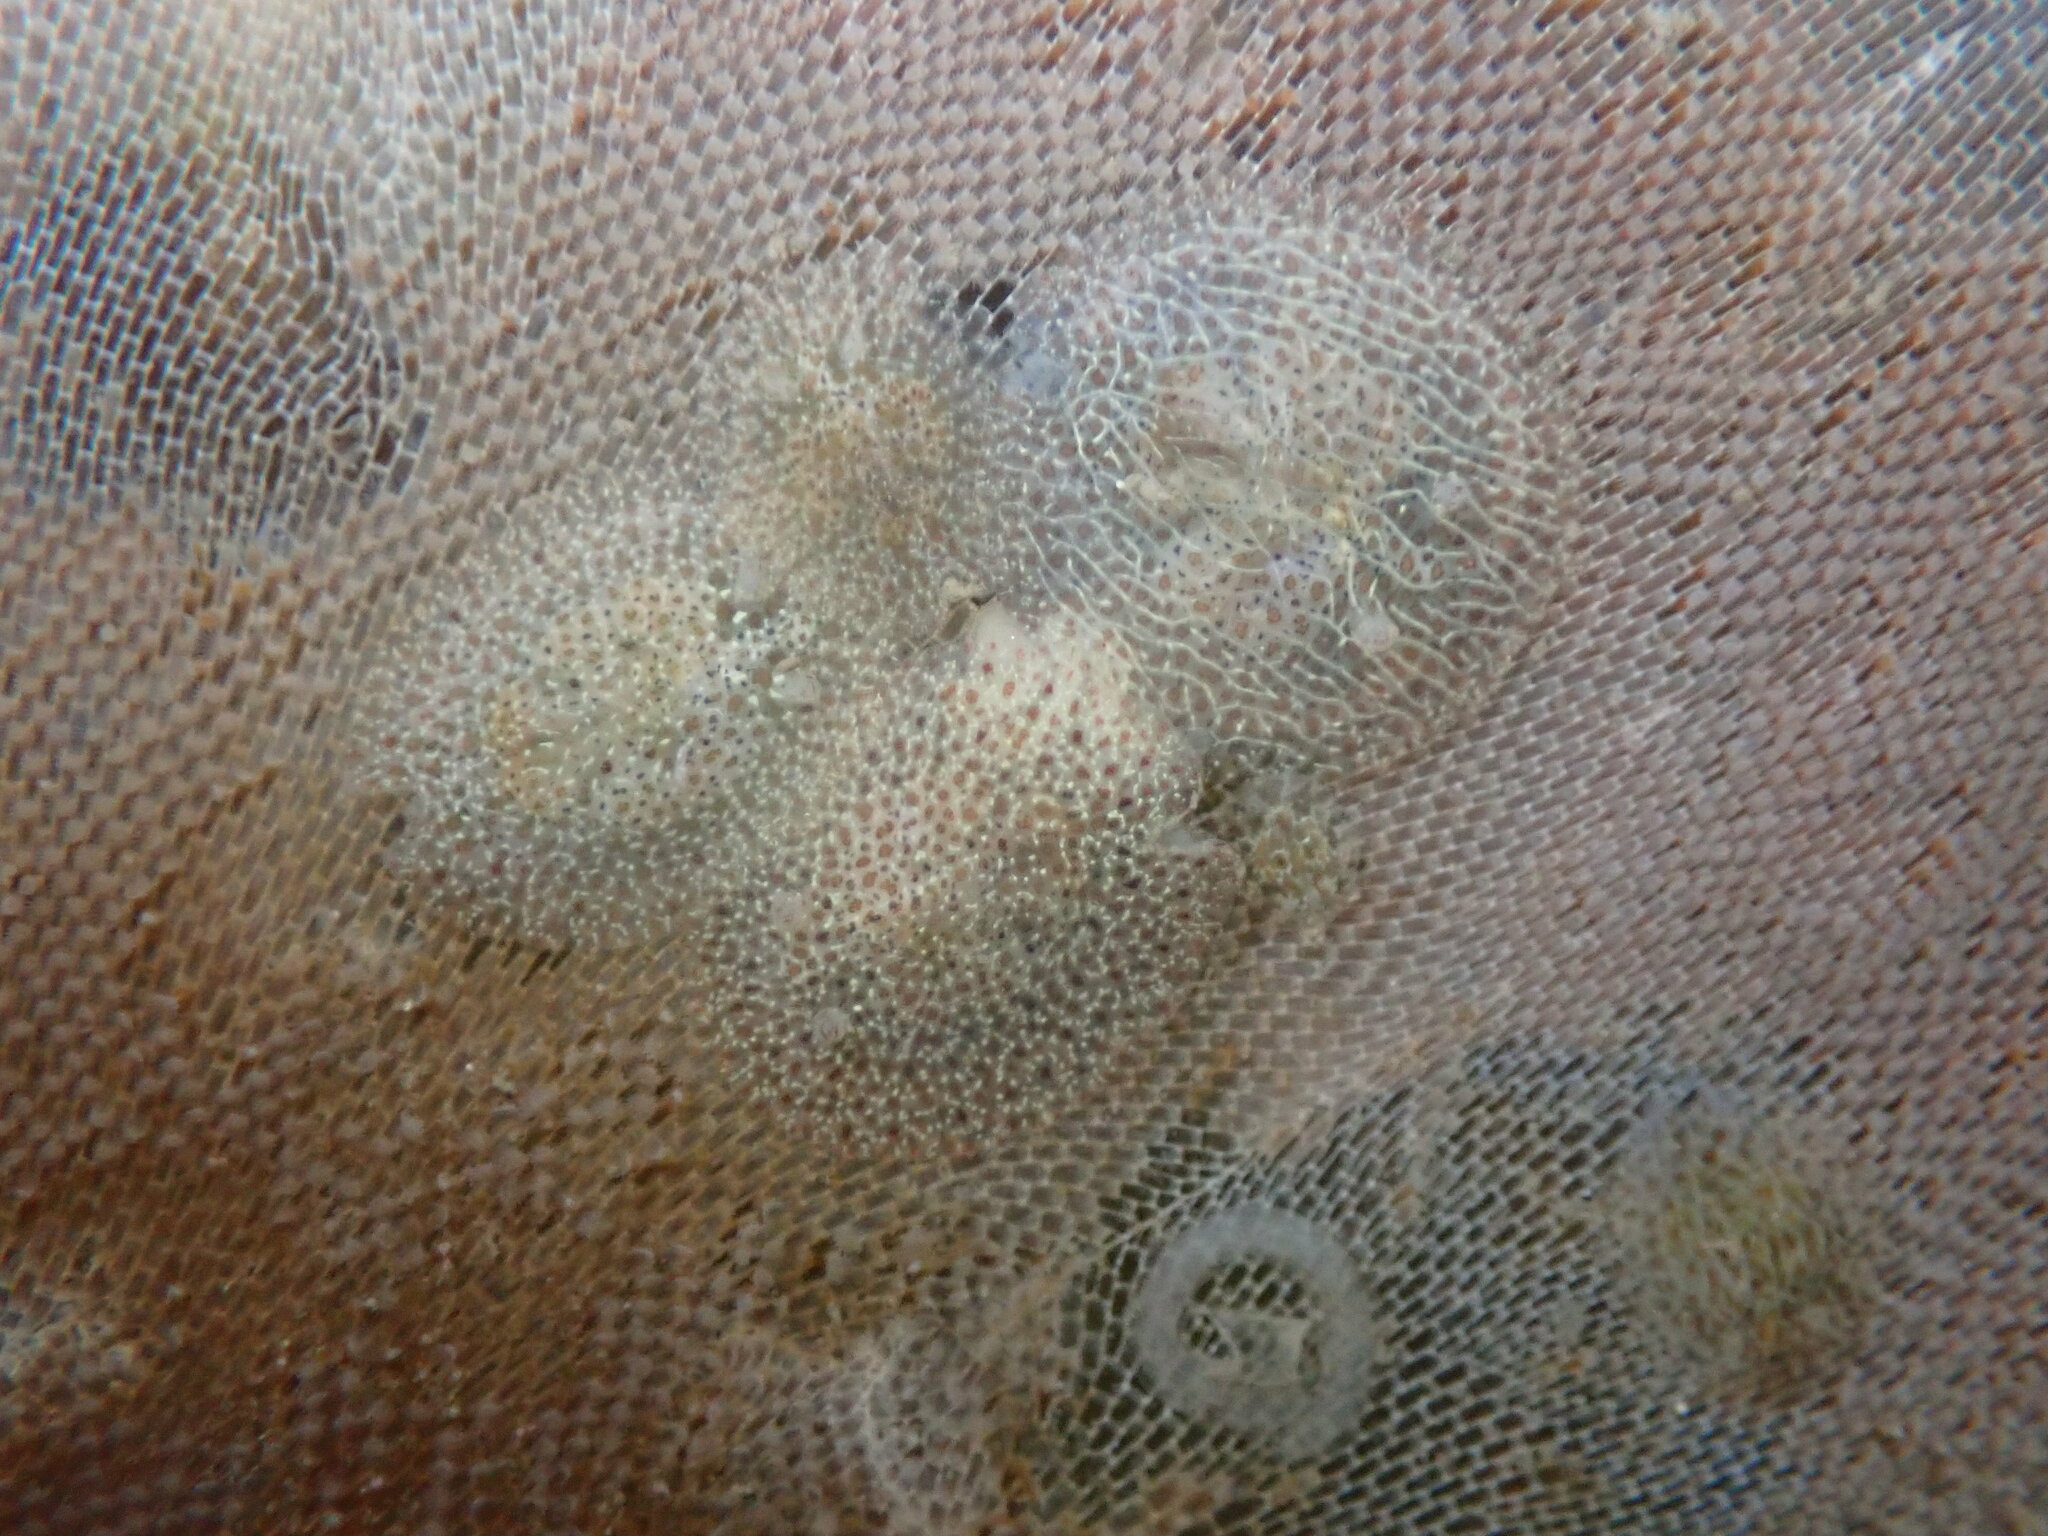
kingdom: Animalia
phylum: Mollusca
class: Gastropoda
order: Nudibranchia
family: Corambidae
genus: Corambe
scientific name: Corambe pacifica
